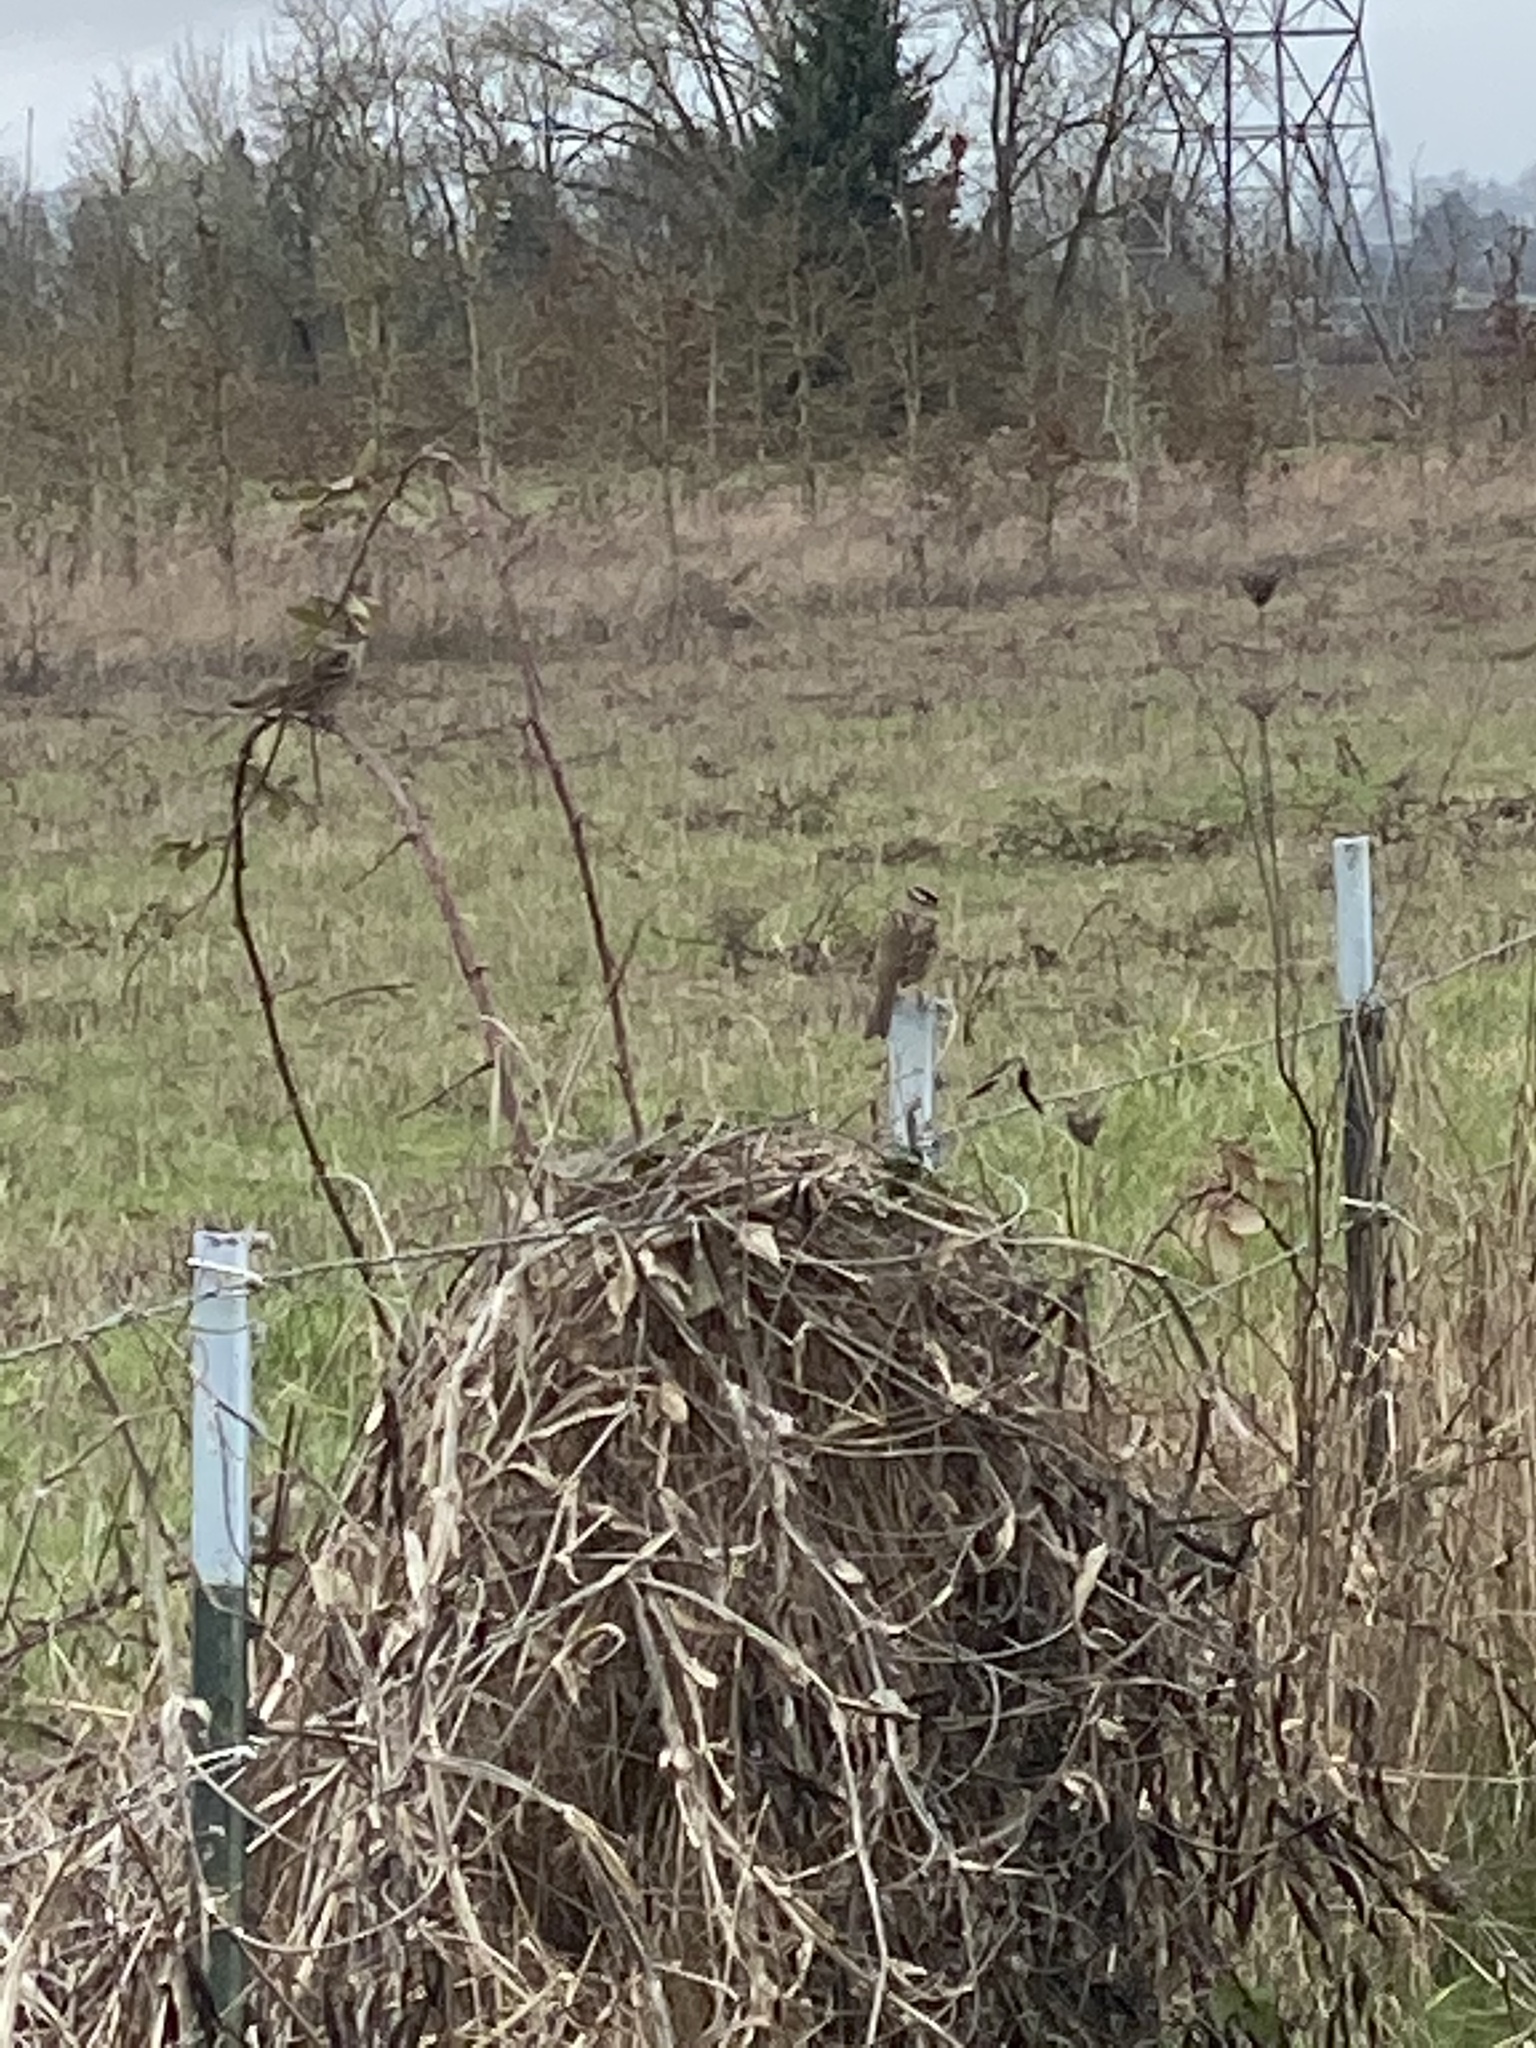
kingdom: Animalia
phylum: Chordata
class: Aves
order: Passeriformes
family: Passerellidae
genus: Zonotrichia
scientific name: Zonotrichia leucophrys
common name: White-crowned sparrow
